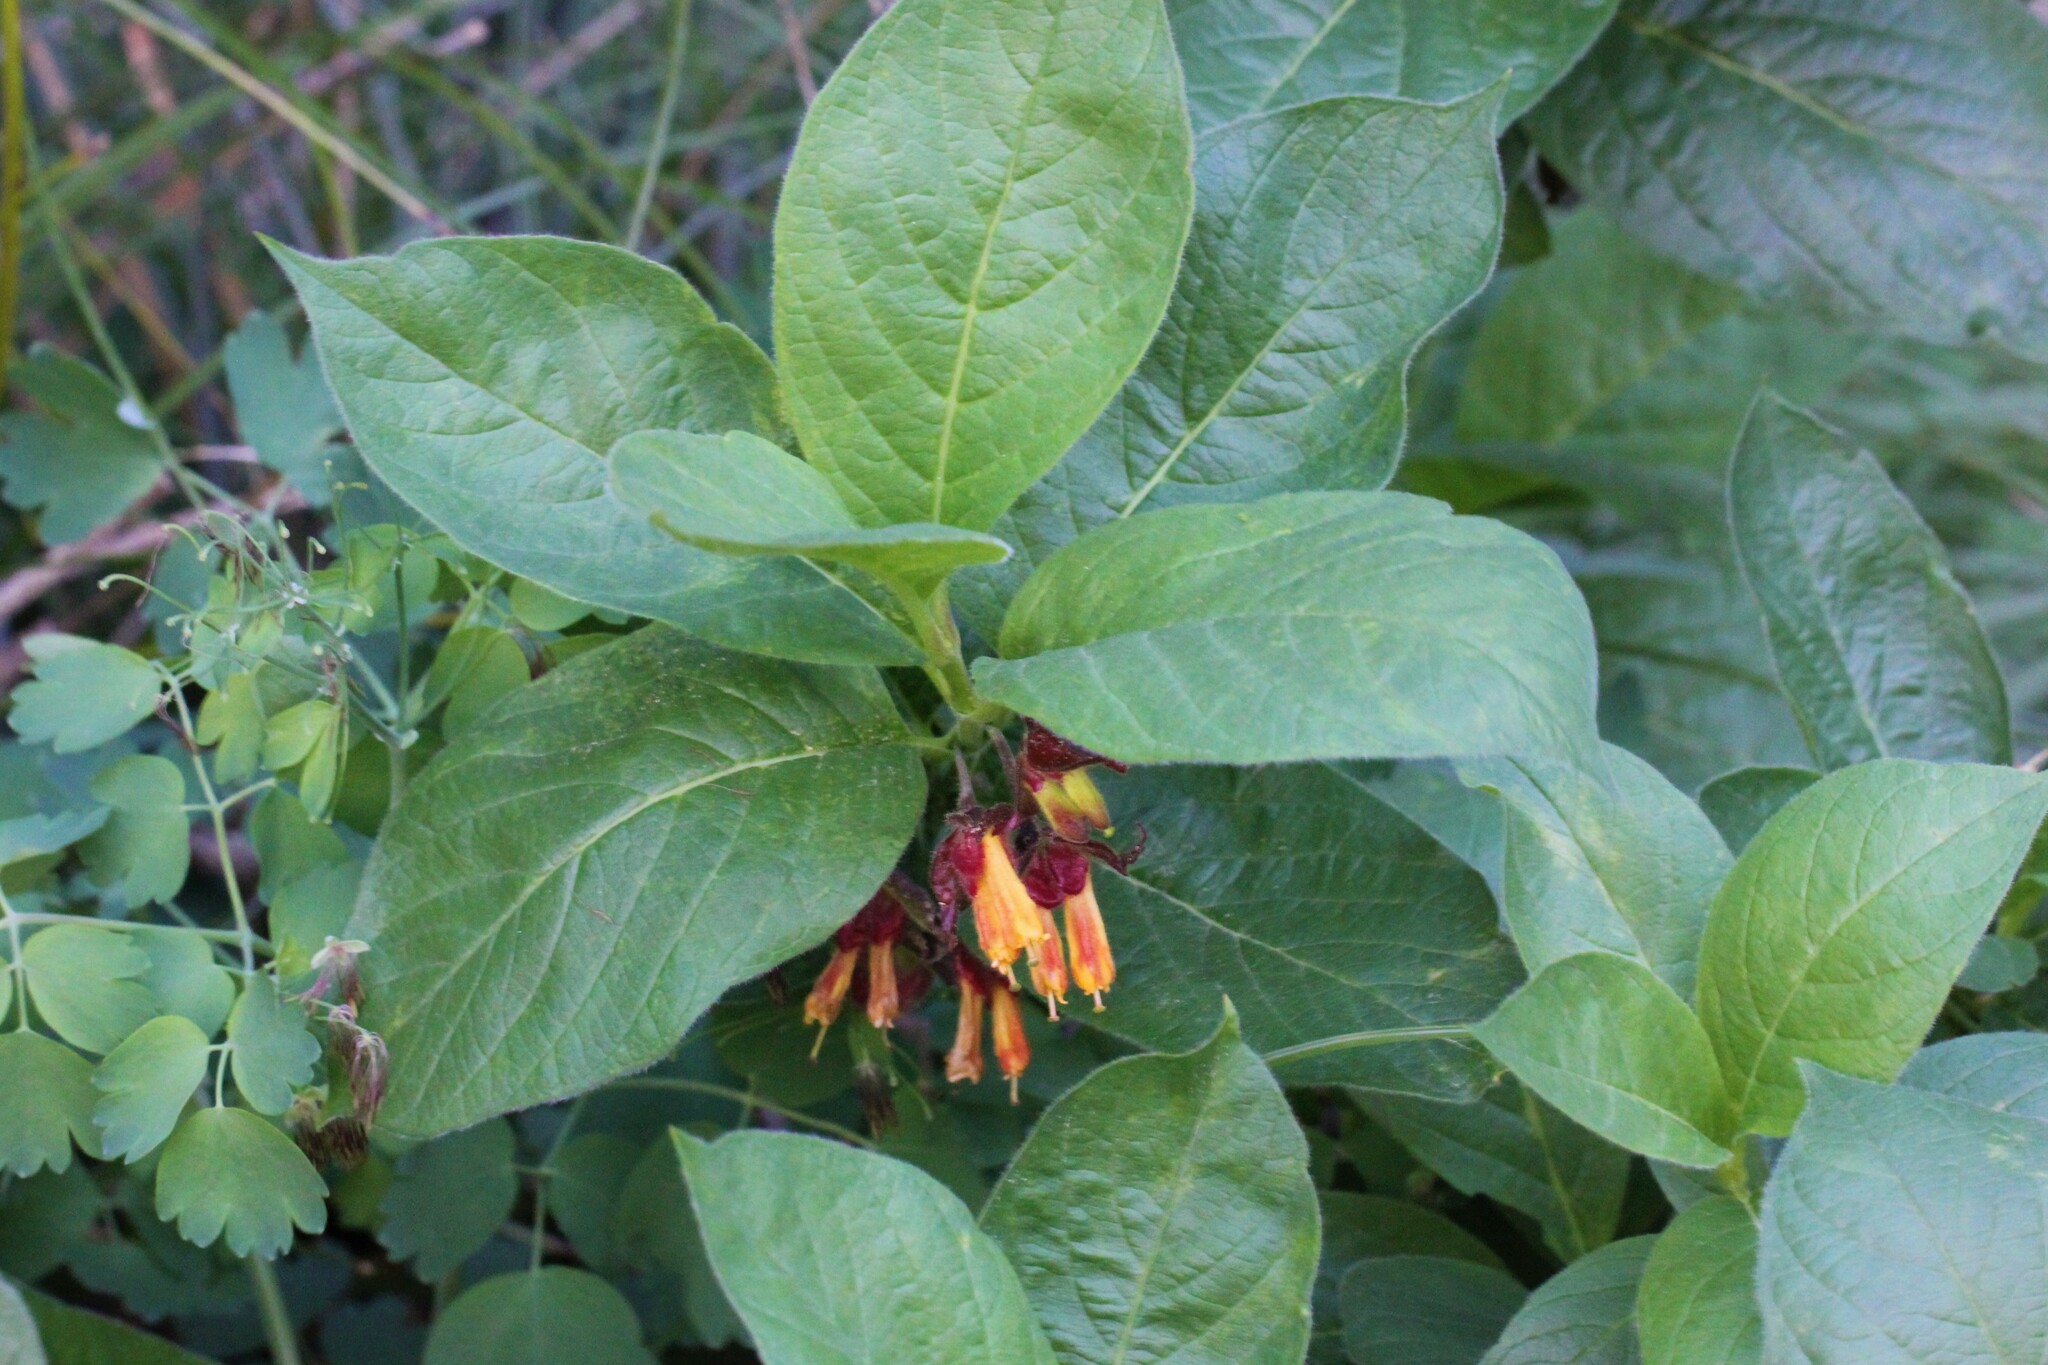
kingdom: Plantae
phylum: Tracheophyta
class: Magnoliopsida
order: Dipsacales
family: Caprifoliaceae
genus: Lonicera
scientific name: Lonicera involucrata
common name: Californian honeysuckle
